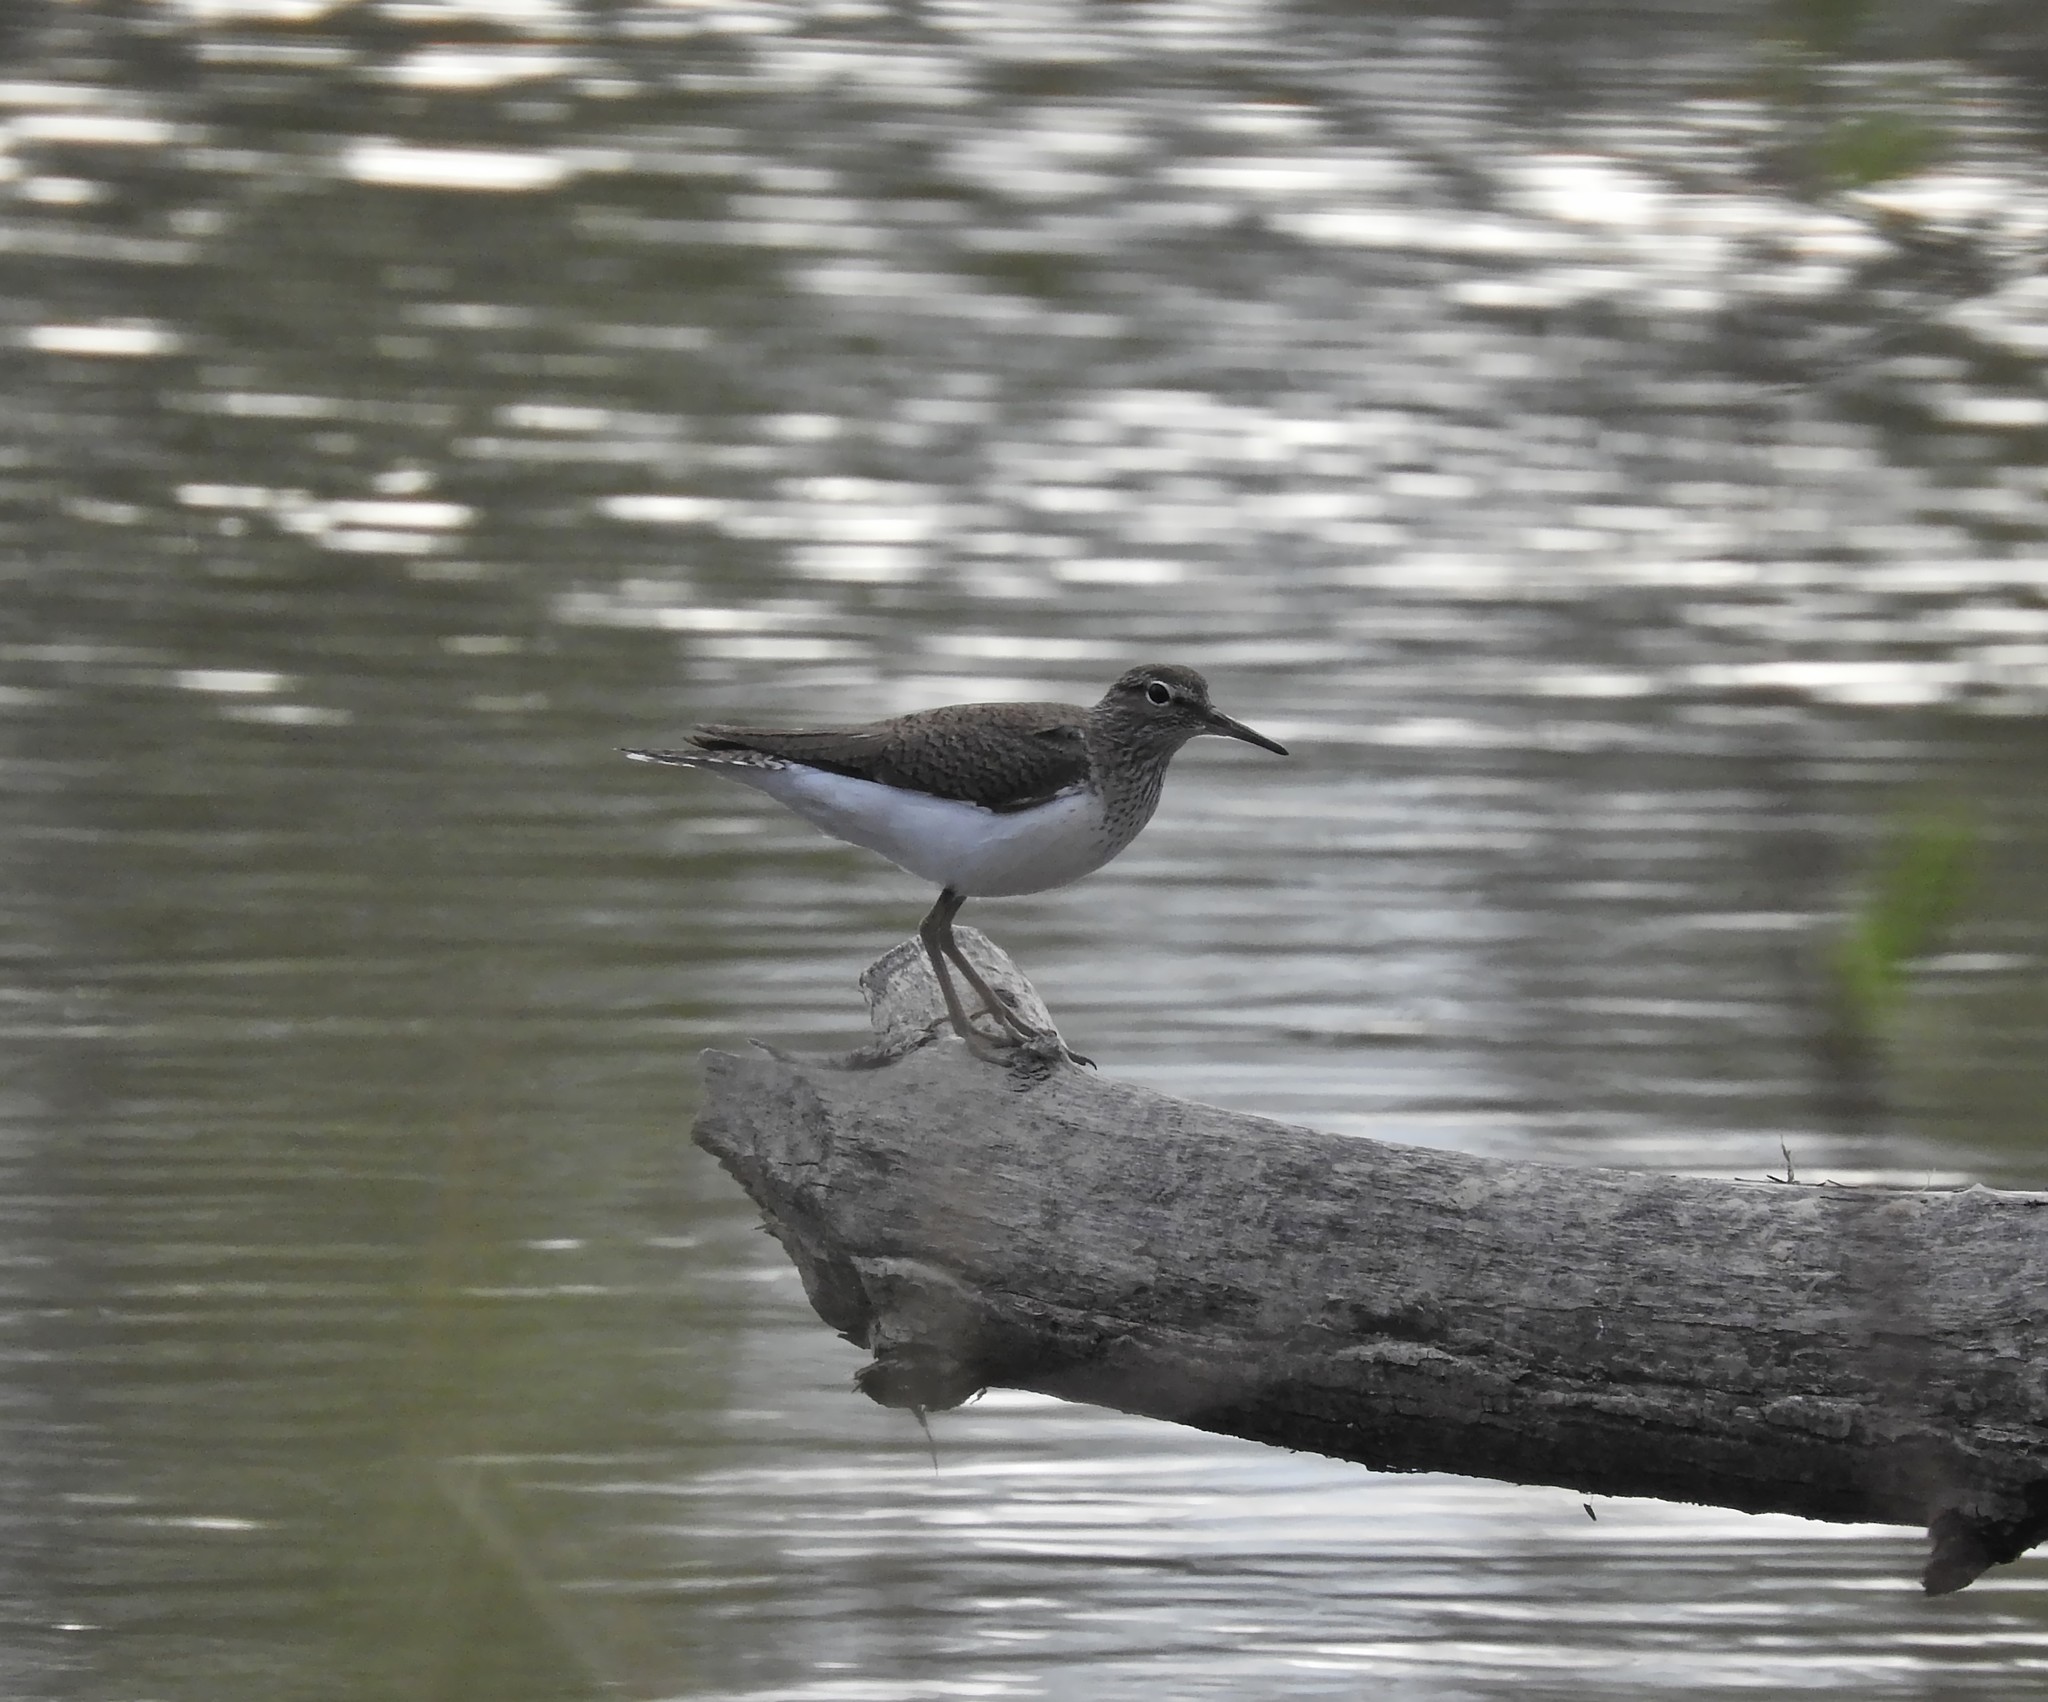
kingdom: Animalia
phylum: Chordata
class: Aves
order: Charadriiformes
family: Scolopacidae
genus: Actitis
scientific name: Actitis hypoleucos
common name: Common sandpiper
